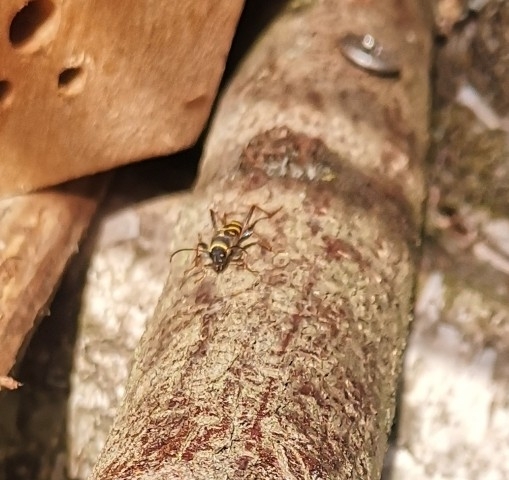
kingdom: Animalia
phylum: Arthropoda
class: Insecta
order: Coleoptera
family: Cerambycidae
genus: Clytus
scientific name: Clytus arietis
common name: Wasp beetle
